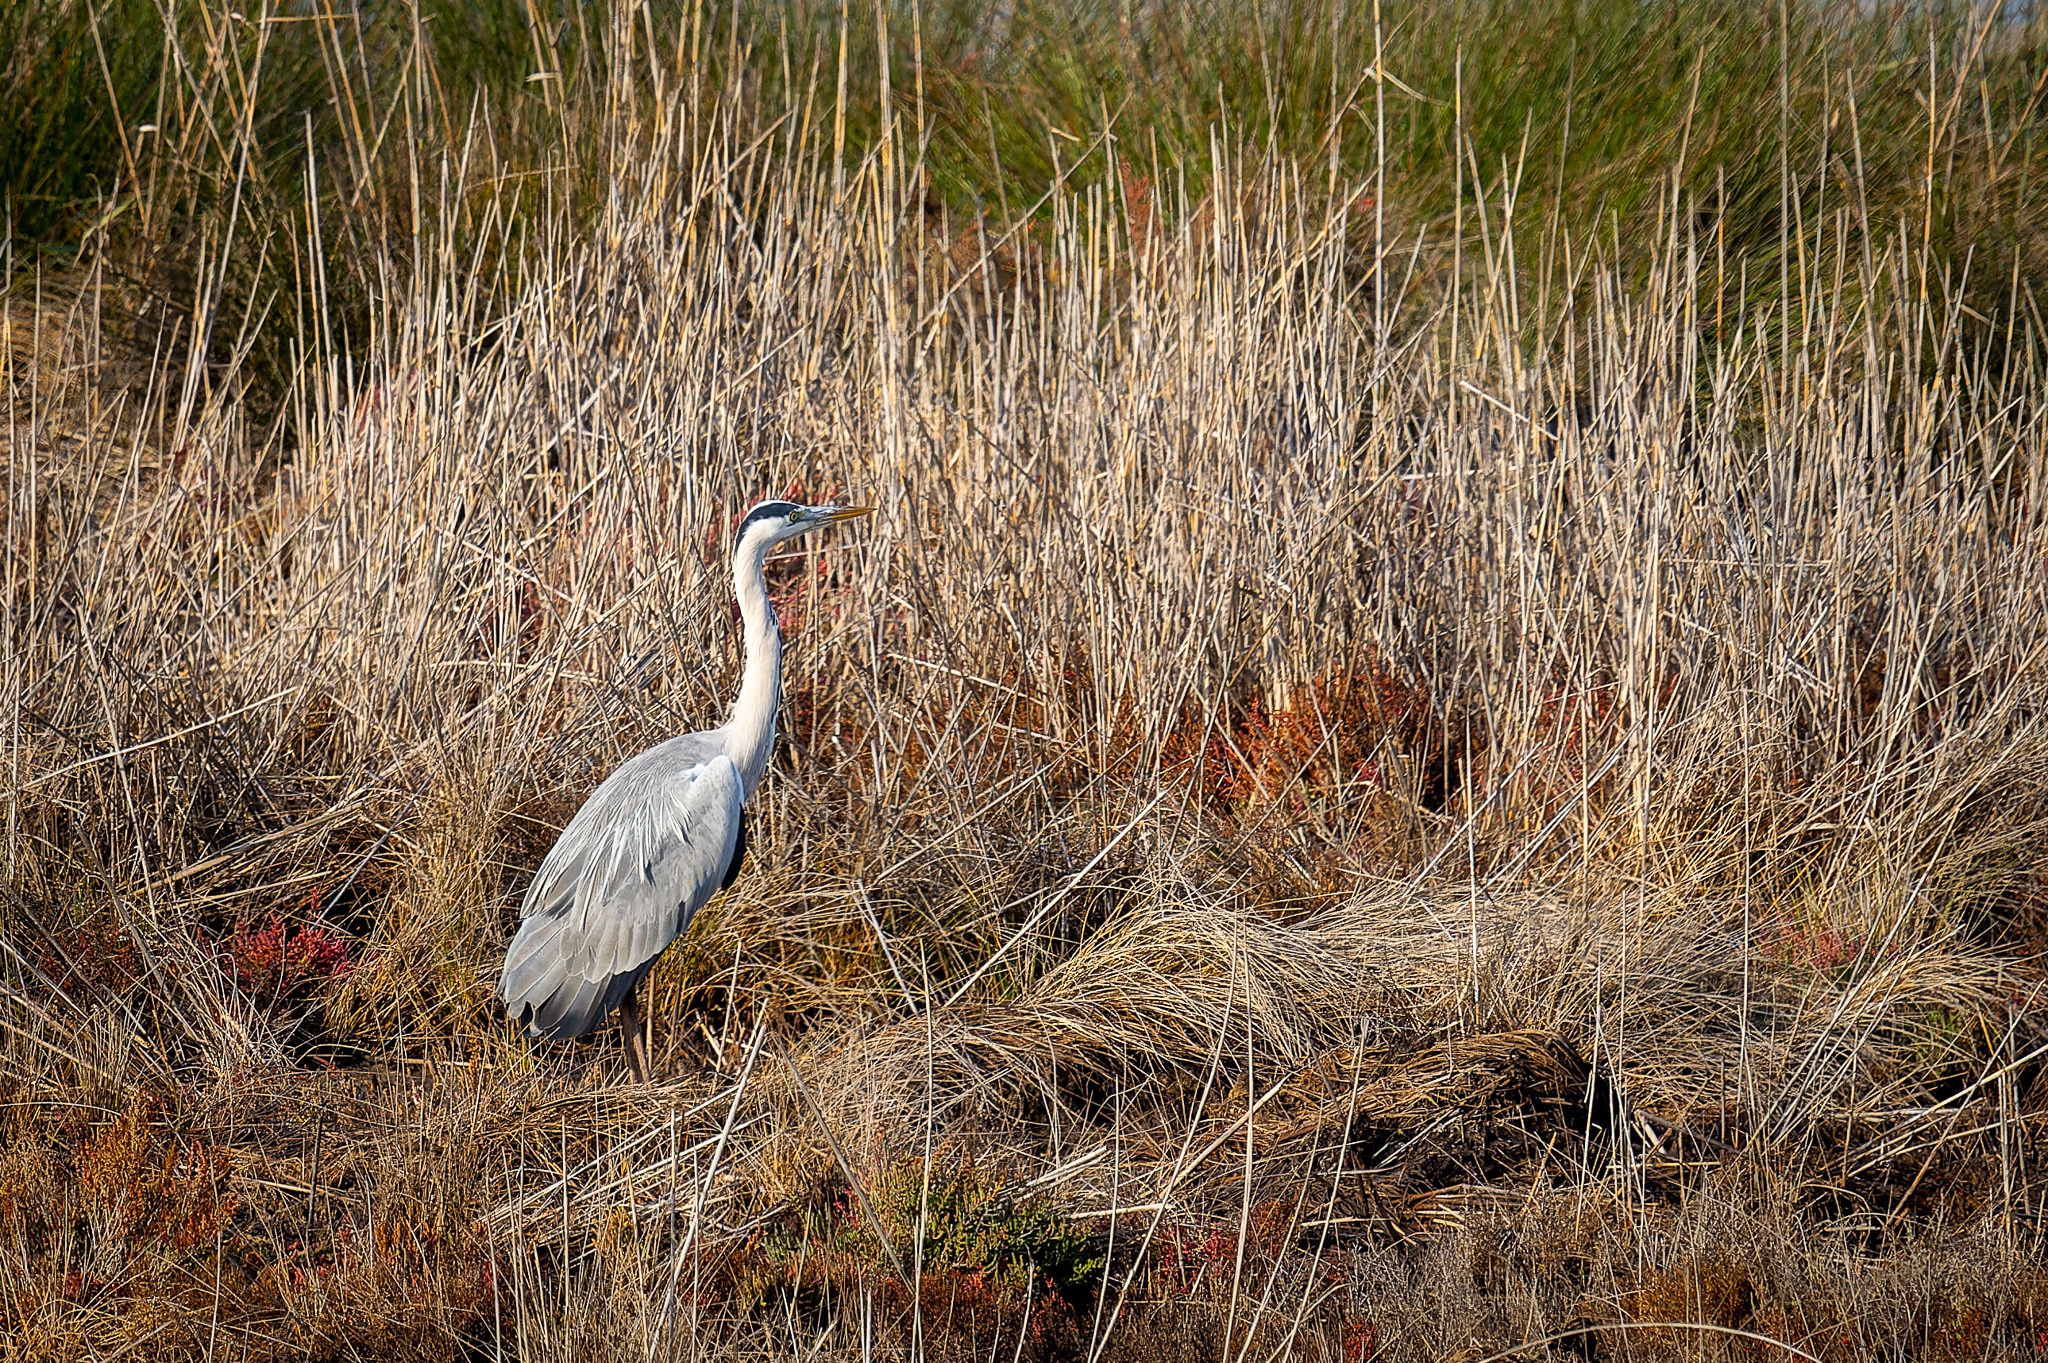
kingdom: Animalia
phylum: Chordata
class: Aves
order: Pelecaniformes
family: Ardeidae
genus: Ardea
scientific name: Ardea cinerea
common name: Grey heron
